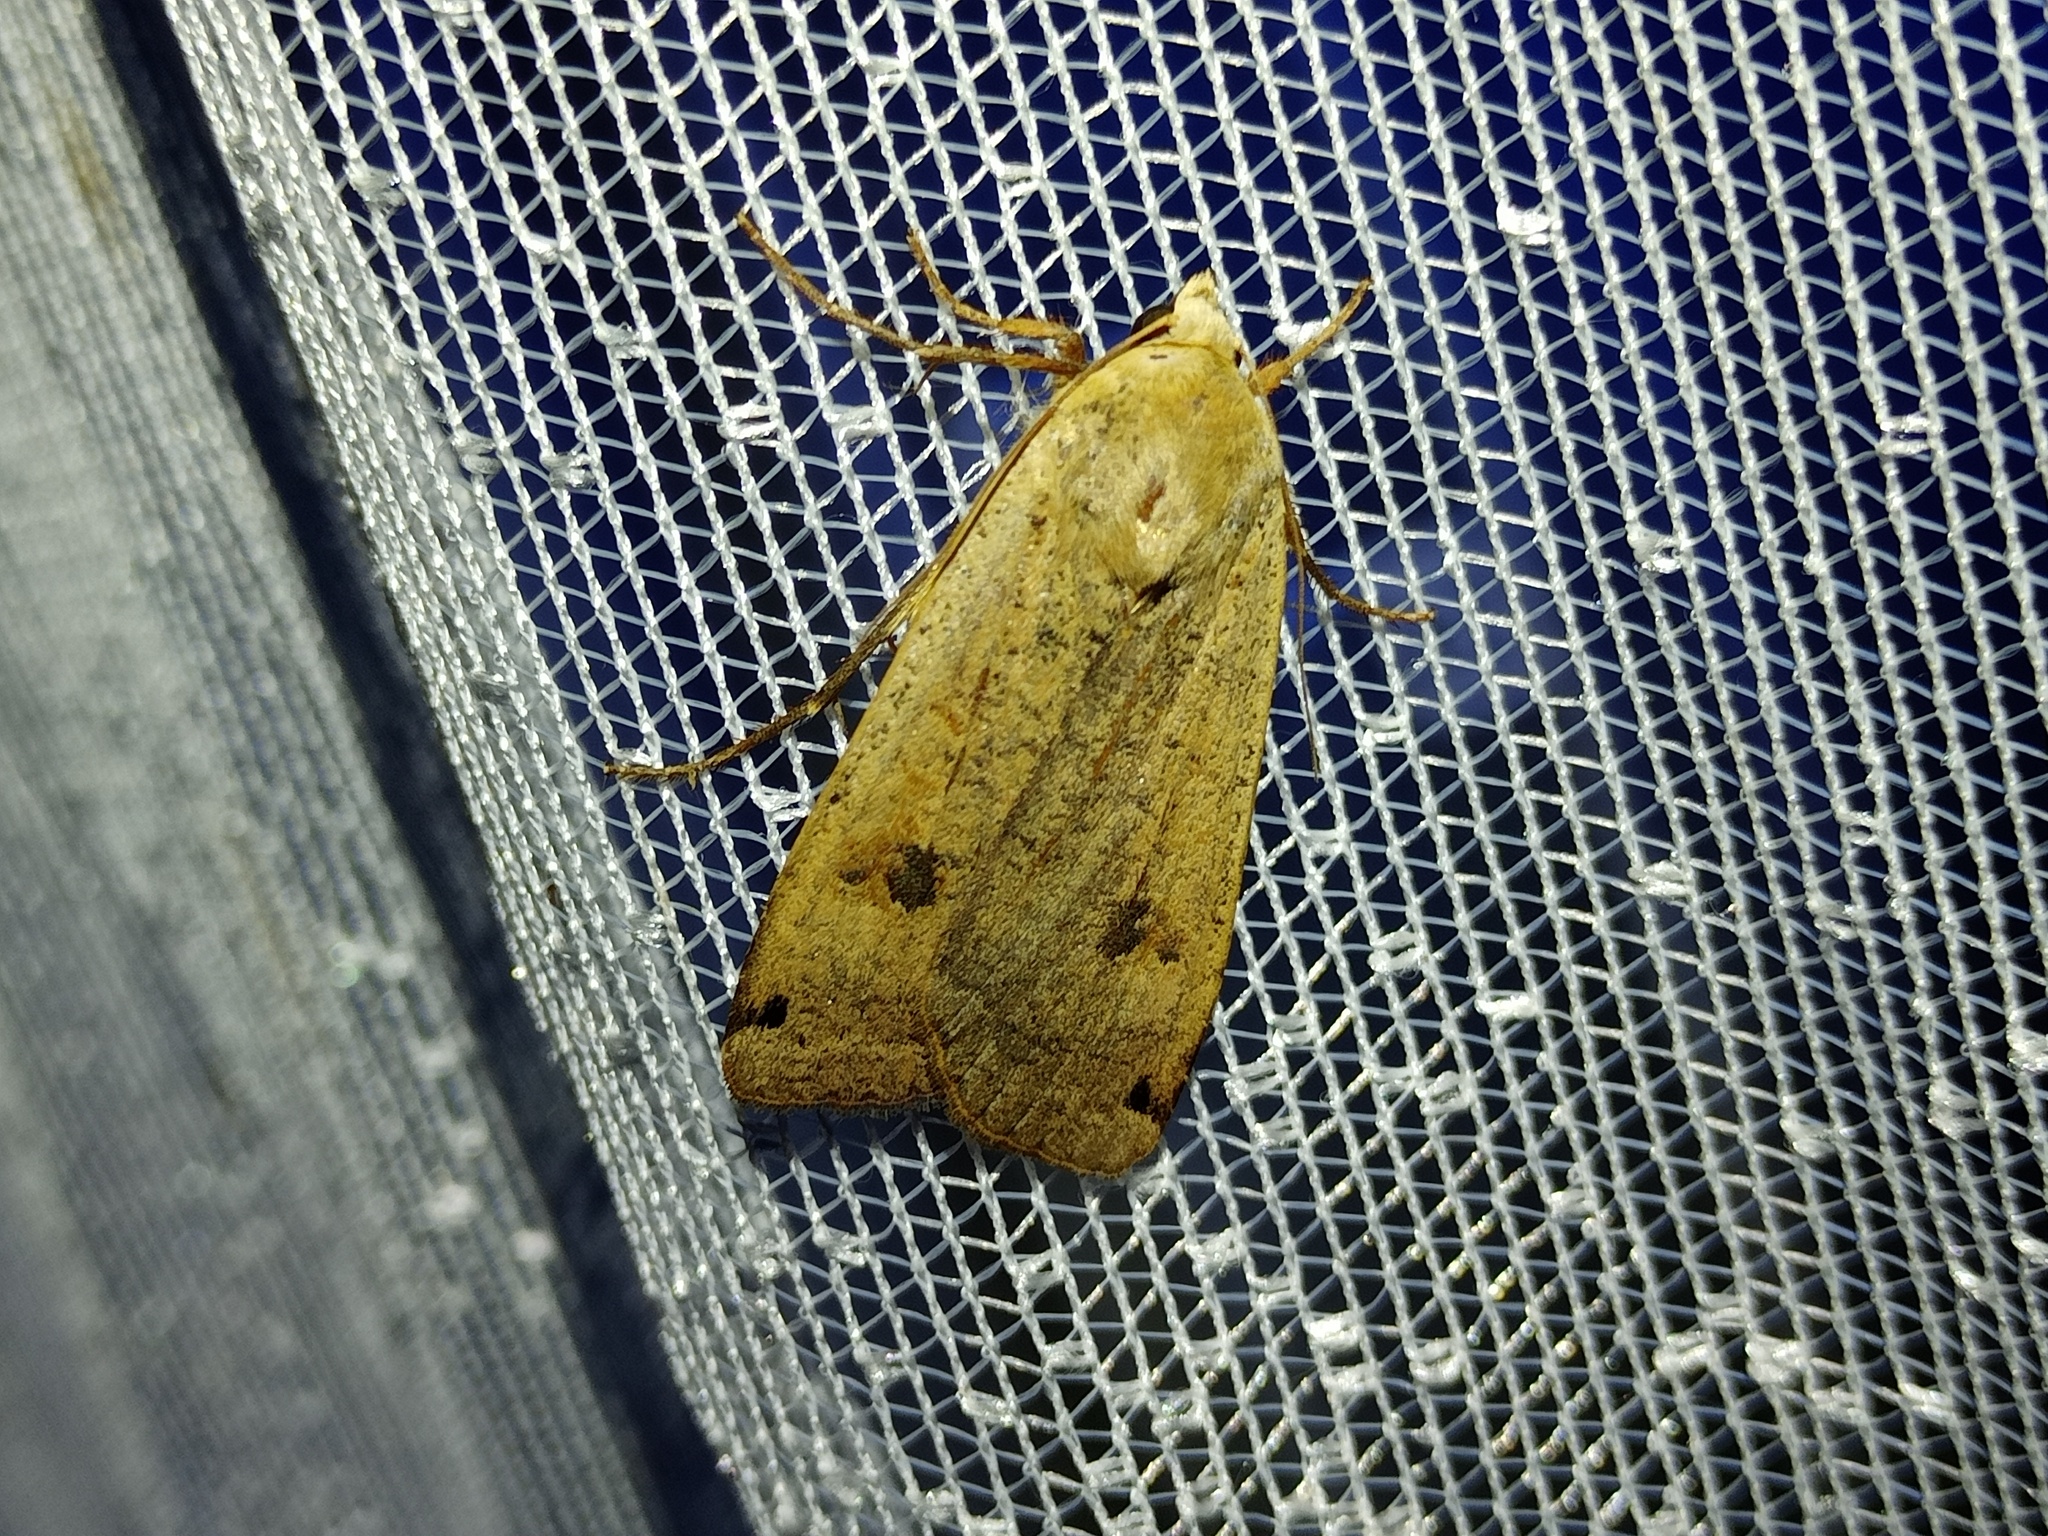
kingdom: Animalia
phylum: Arthropoda
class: Insecta
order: Lepidoptera
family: Noctuidae
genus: Noctua
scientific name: Noctua pronuba
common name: Large yellow underwing
